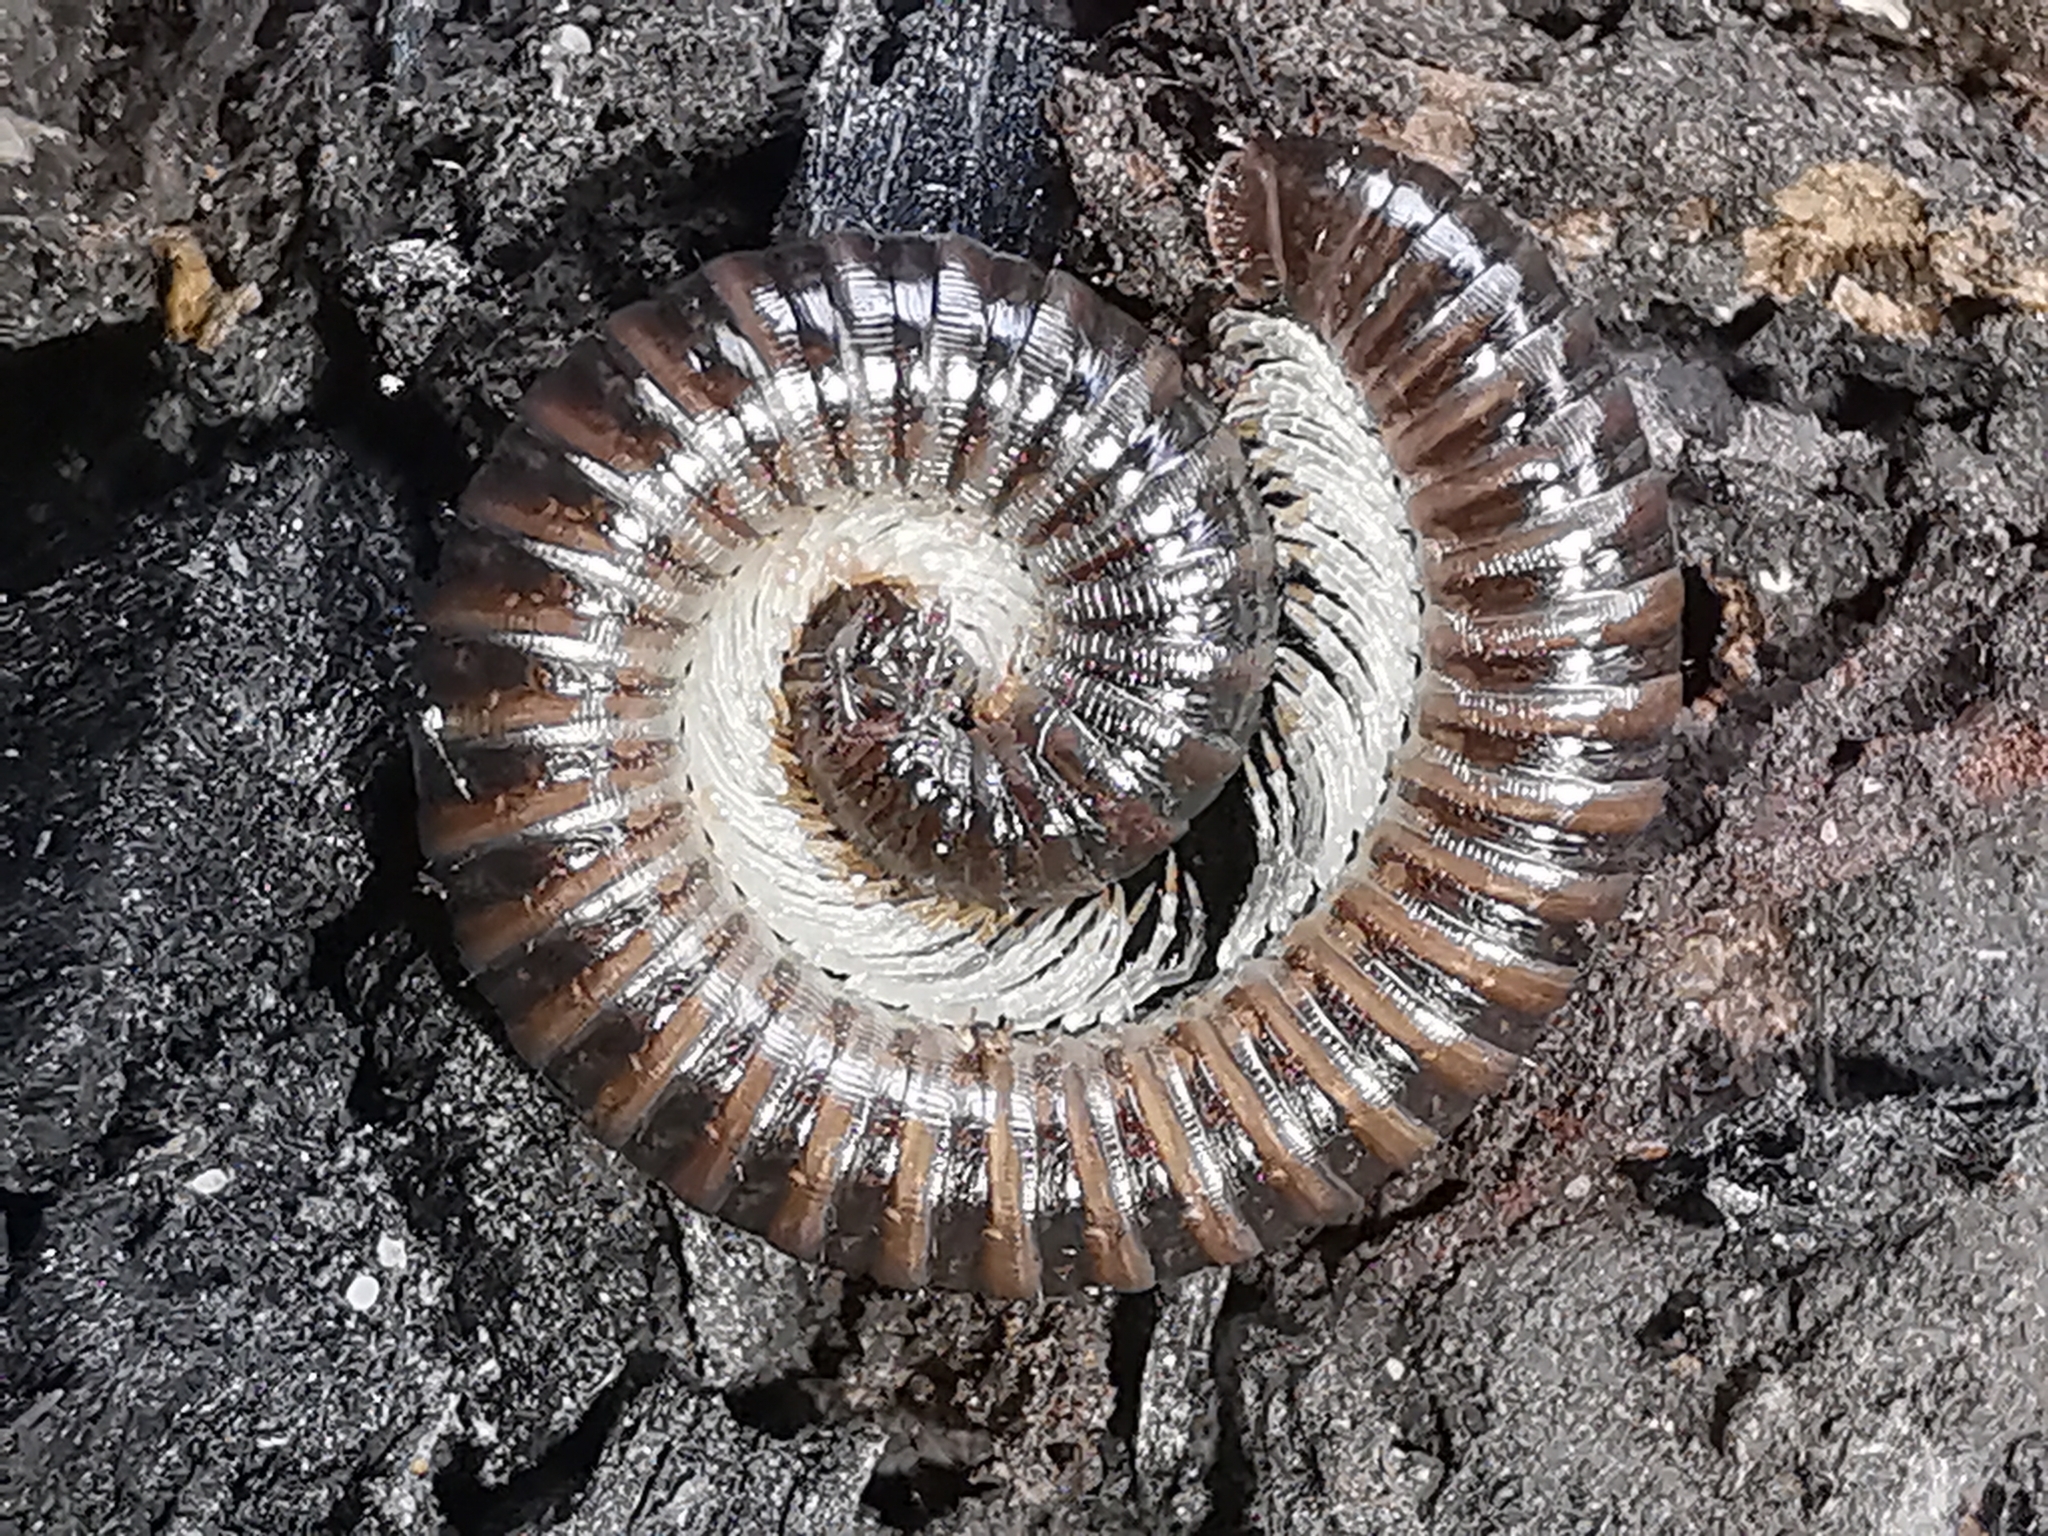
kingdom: Animalia
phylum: Arthropoda
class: Diplopoda
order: Julida
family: Julidae
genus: Tachypodoiulus
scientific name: Tachypodoiulus niger
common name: White-legged snake millipede
